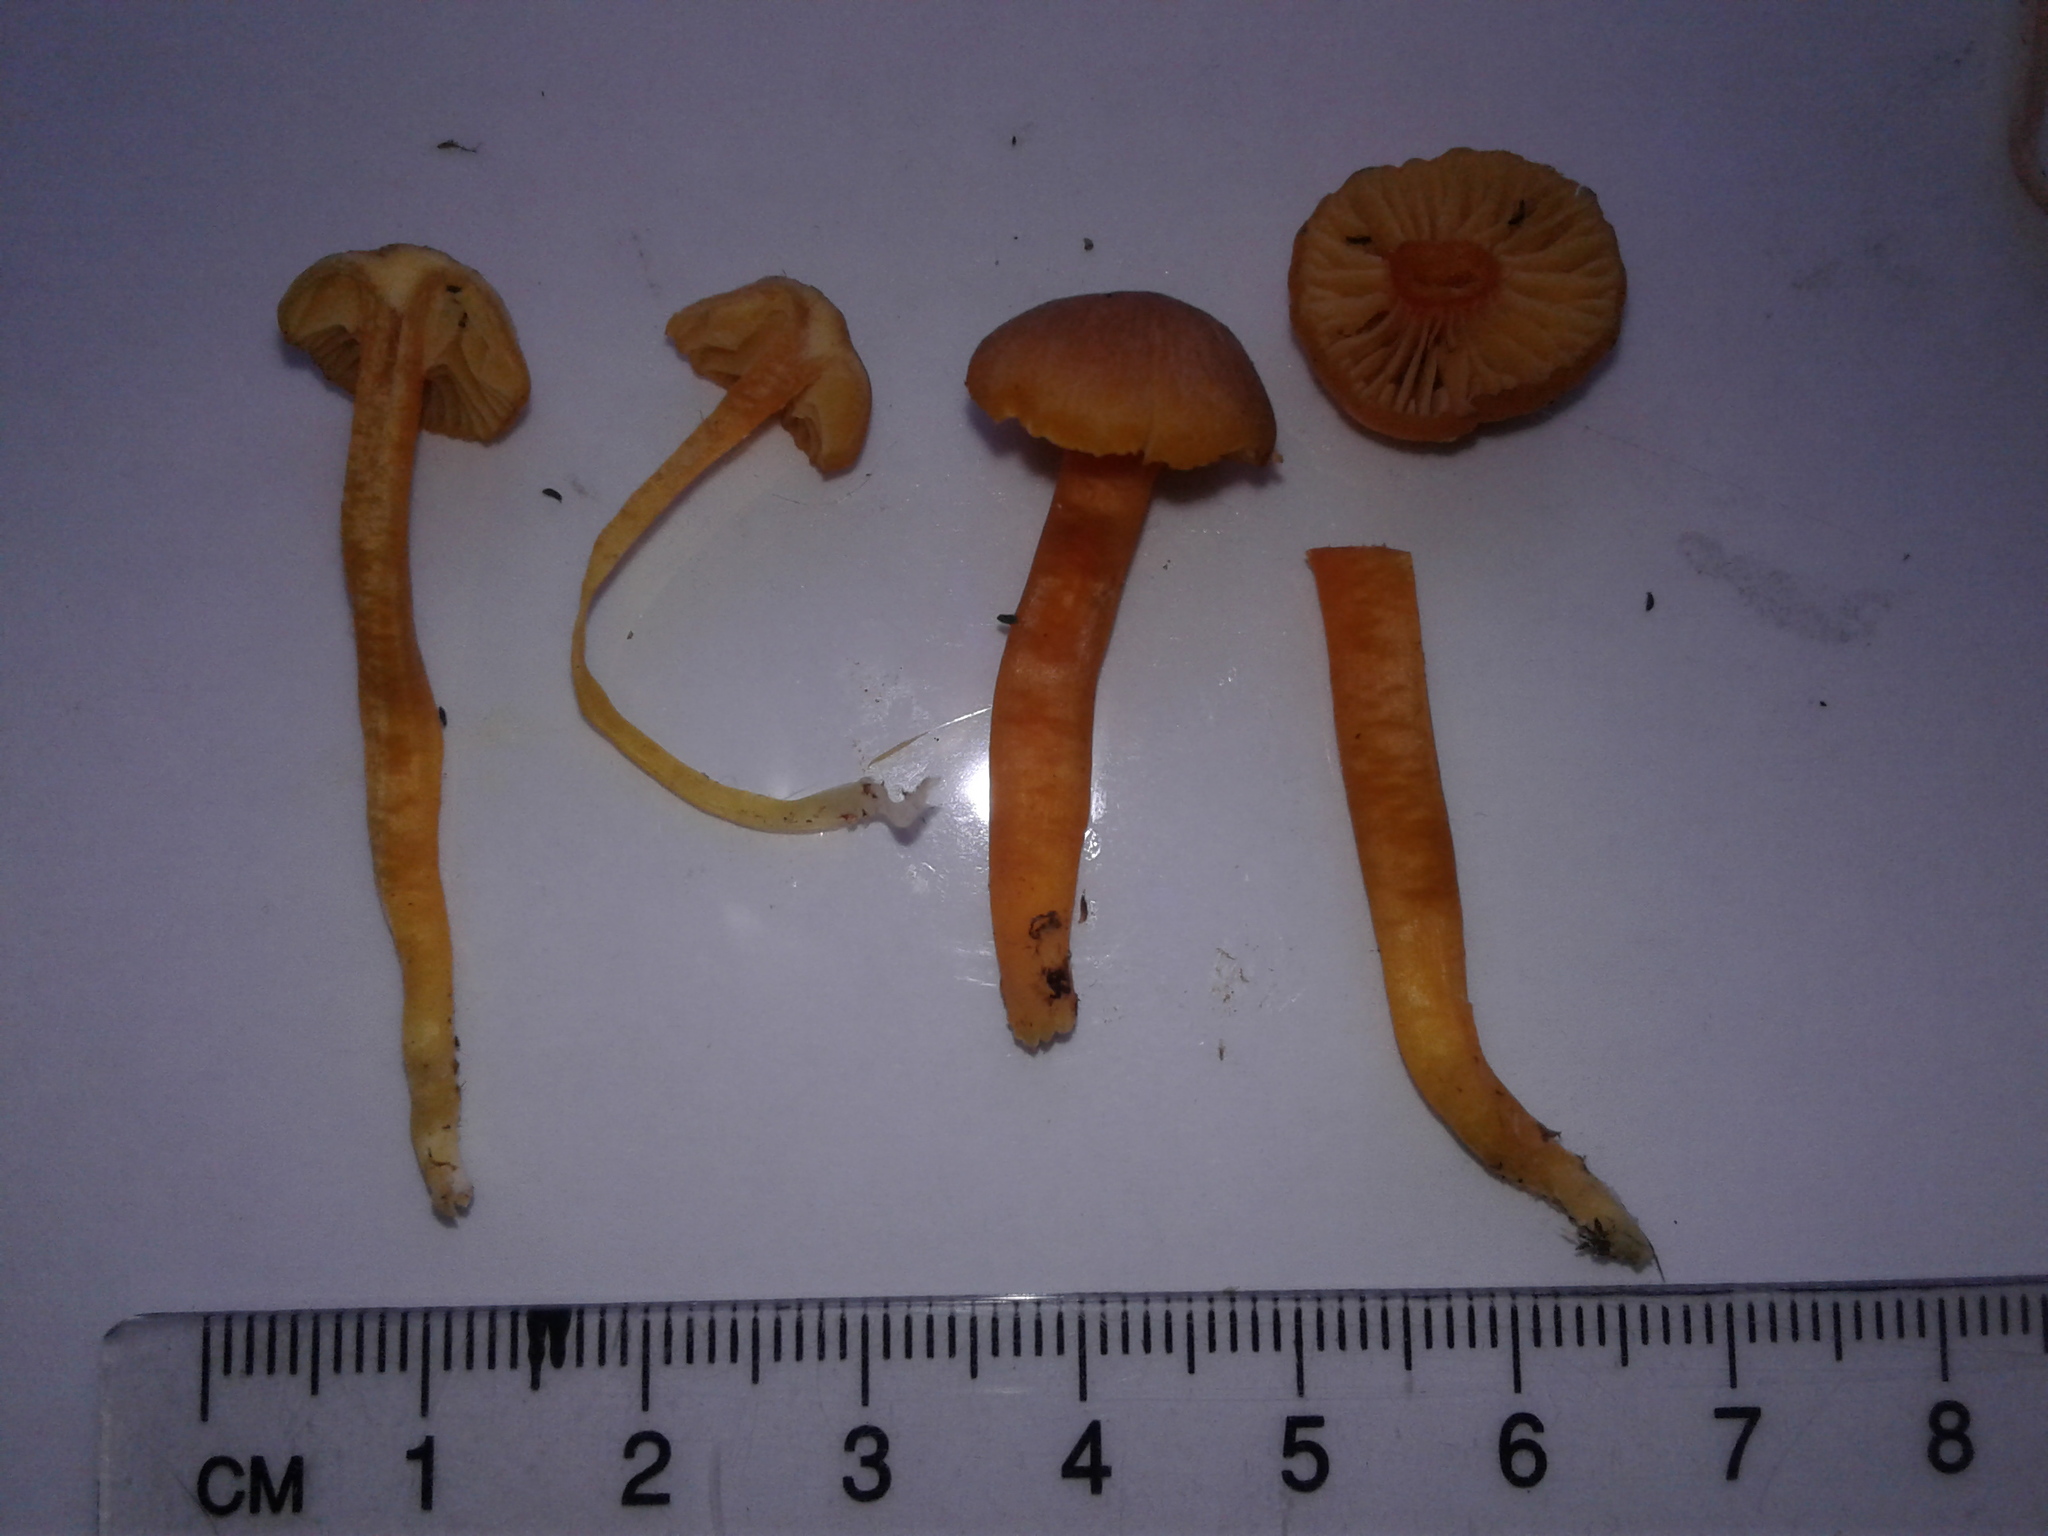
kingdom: Fungi
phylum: Basidiomycota
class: Agaricomycetes
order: Agaricales
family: Hygrophoraceae
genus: Hygrocybe
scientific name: Hygrocybe
